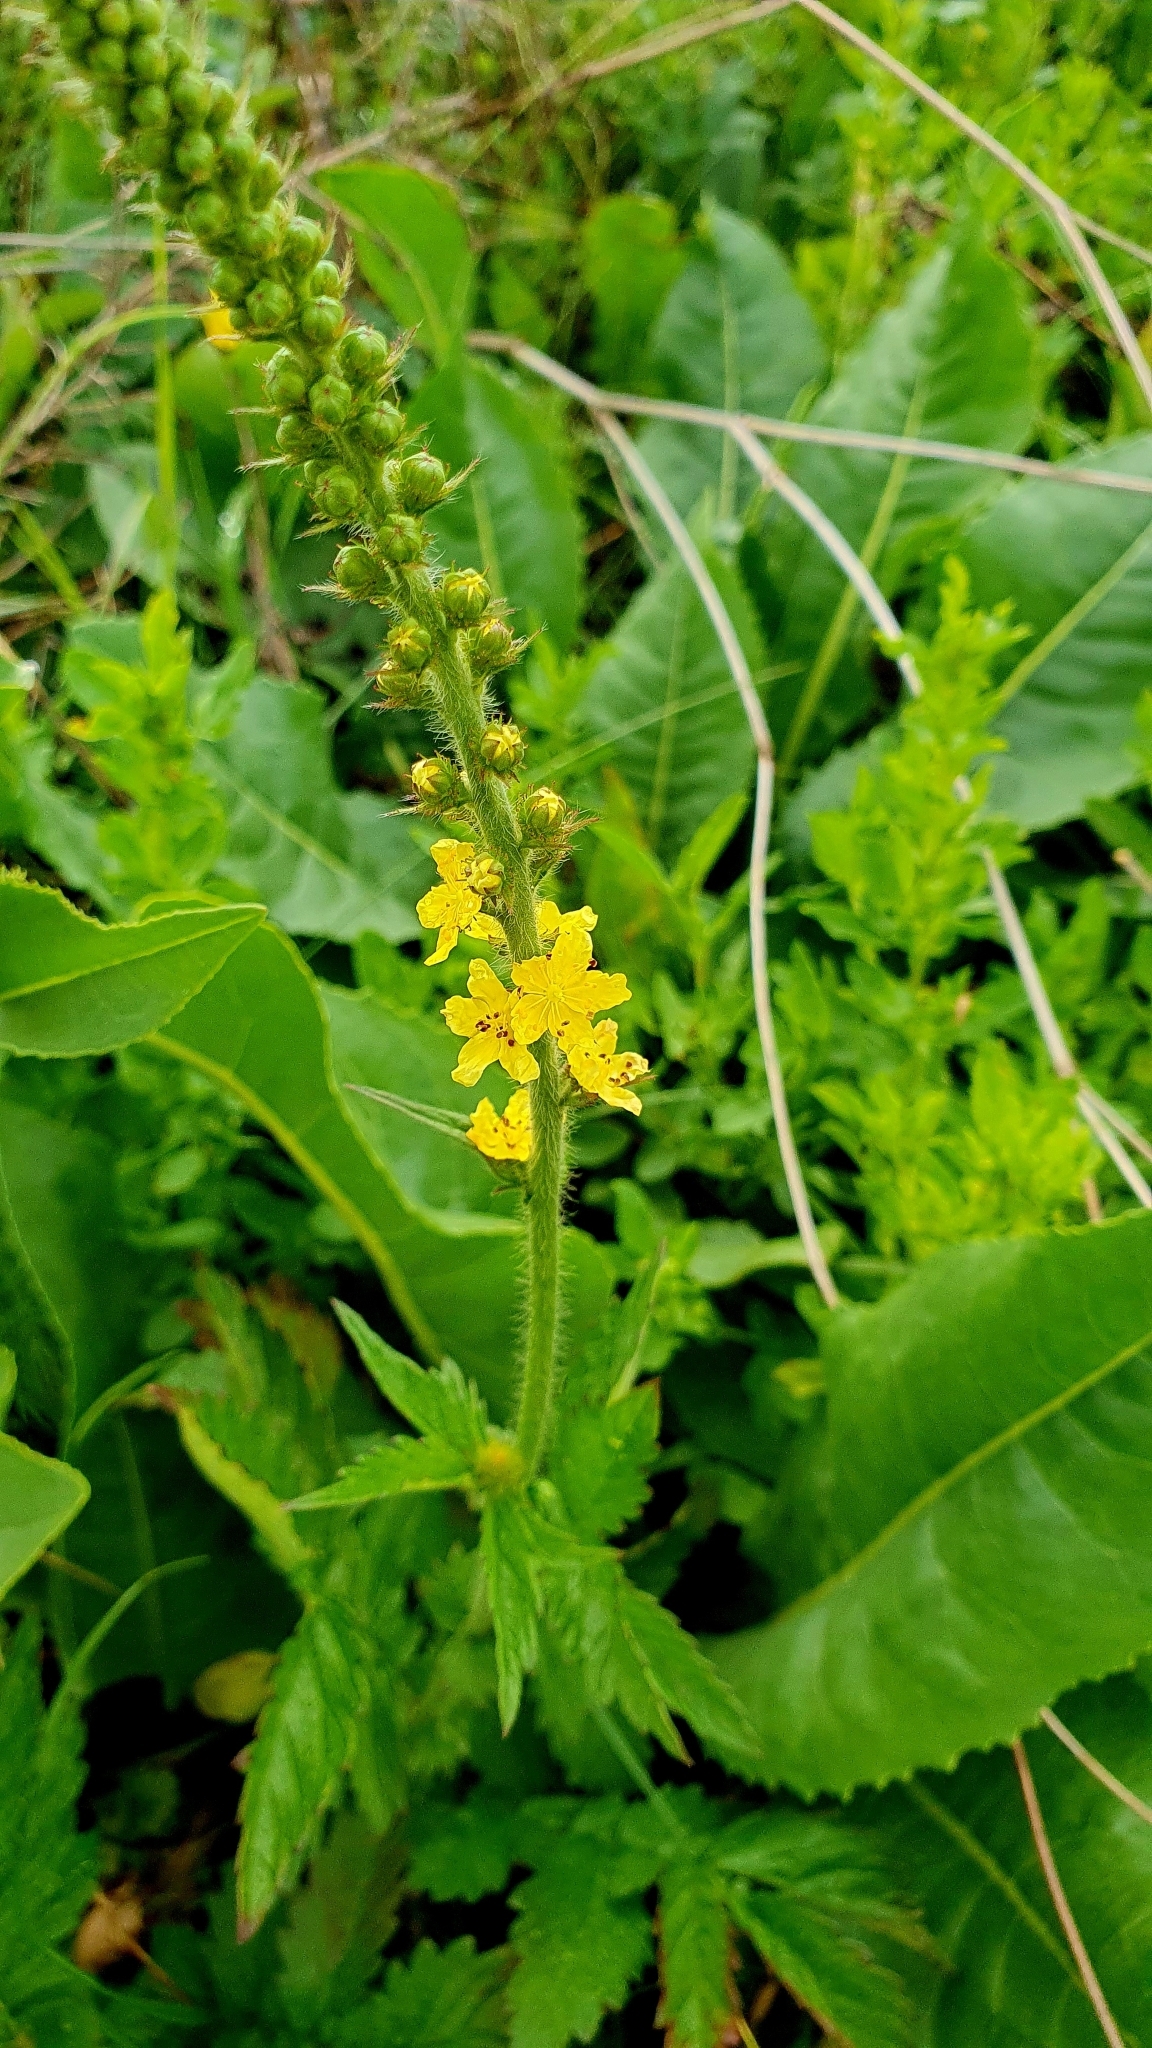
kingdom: Plantae
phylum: Tracheophyta
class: Magnoliopsida
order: Rosales
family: Rosaceae
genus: Agrimonia
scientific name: Agrimonia eupatoria
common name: Agrimony
